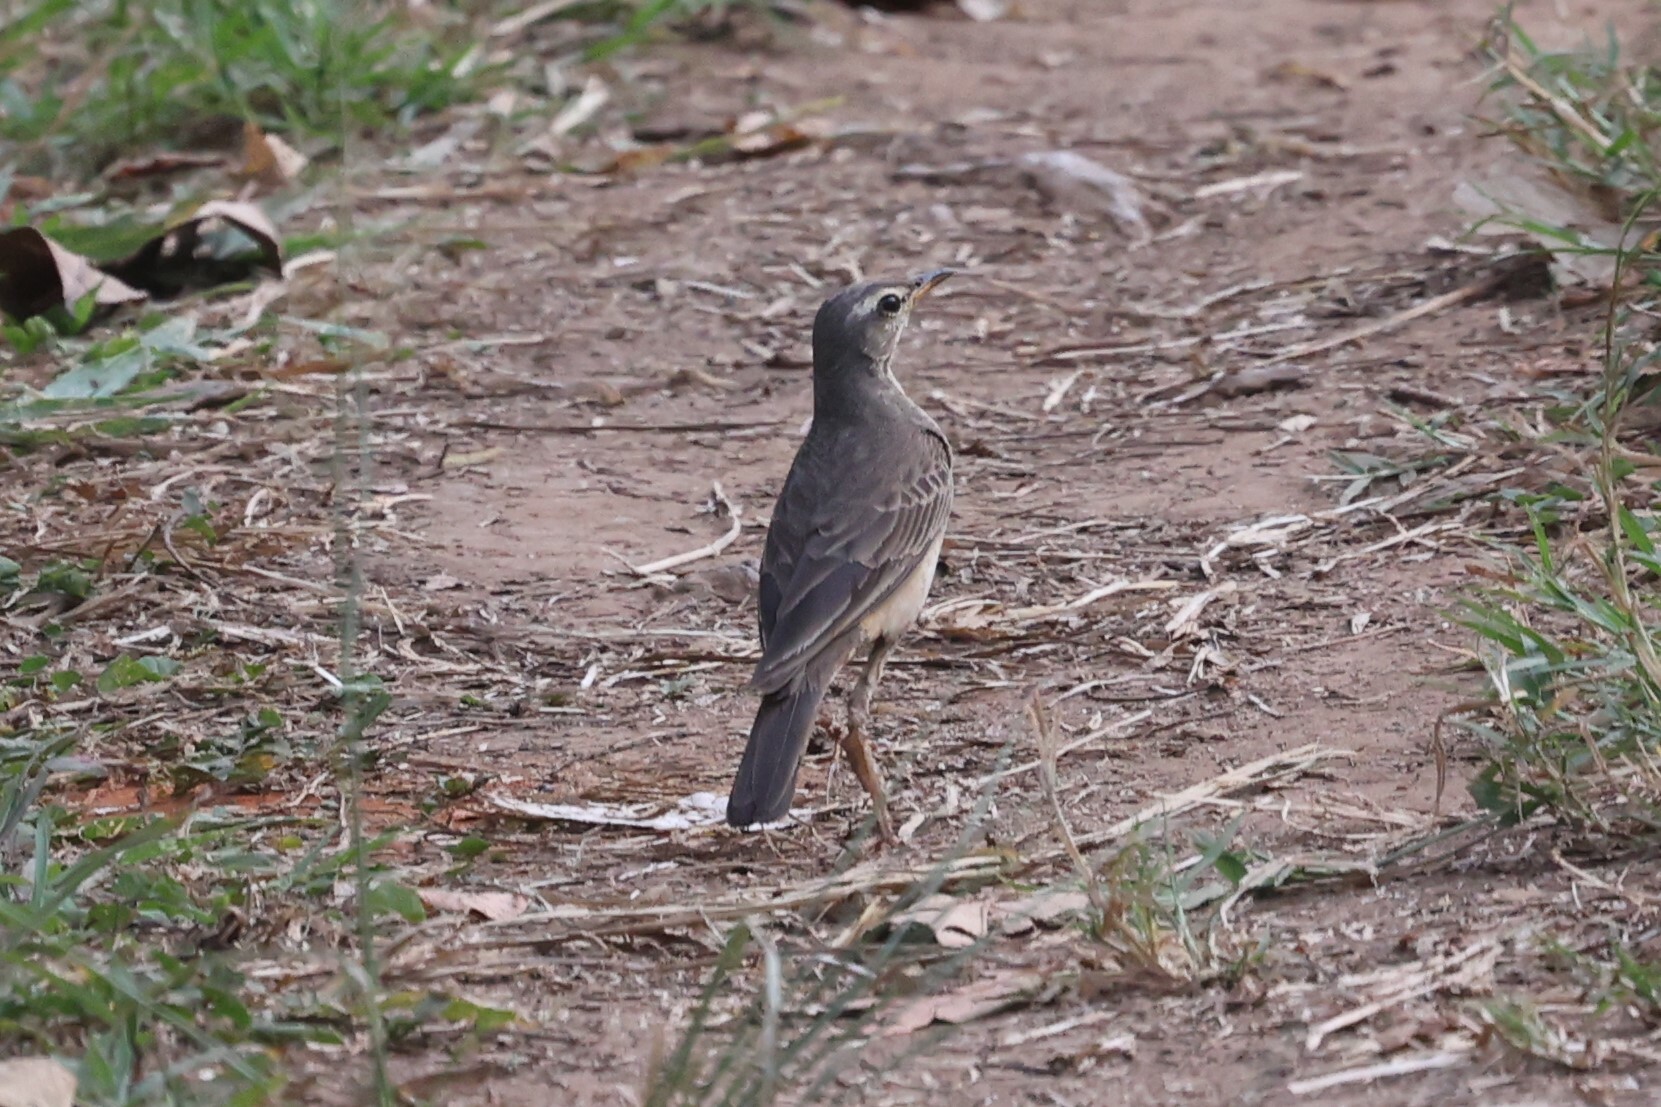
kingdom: Animalia
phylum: Chordata
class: Aves
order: Passeriformes
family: Motacillidae
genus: Anthus
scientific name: Anthus leucophrys
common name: Plain-backed pipit
